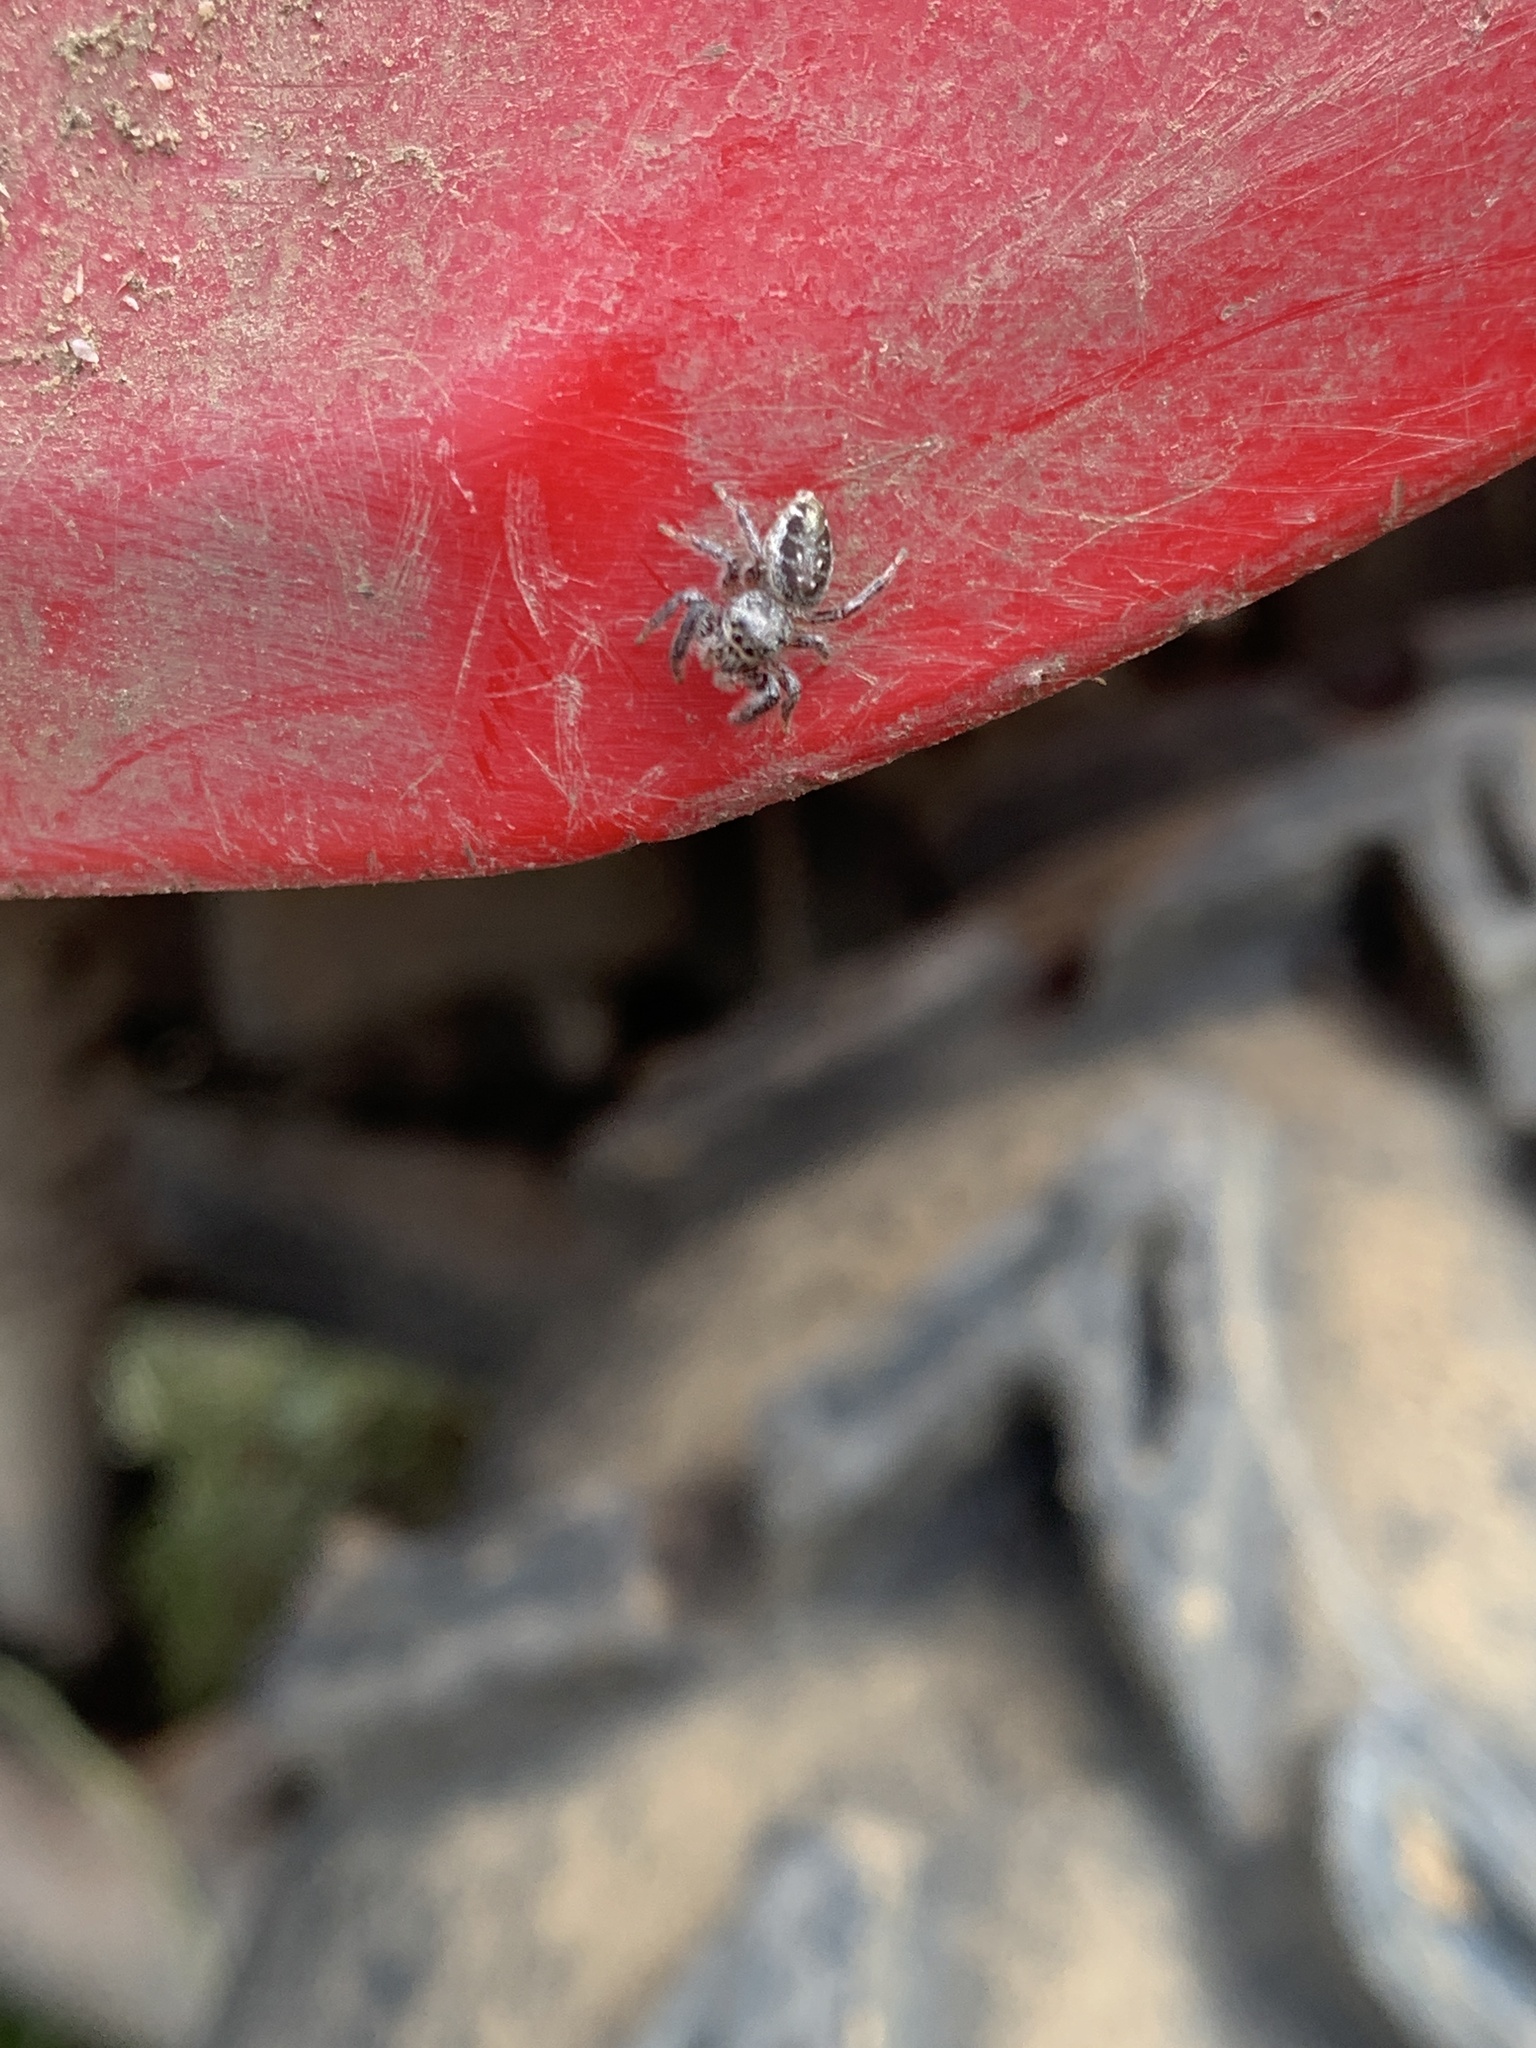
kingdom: Animalia
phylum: Arthropoda
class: Arachnida
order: Araneae
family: Salticidae
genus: Eris
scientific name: Eris militaris
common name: Bronze jumper
